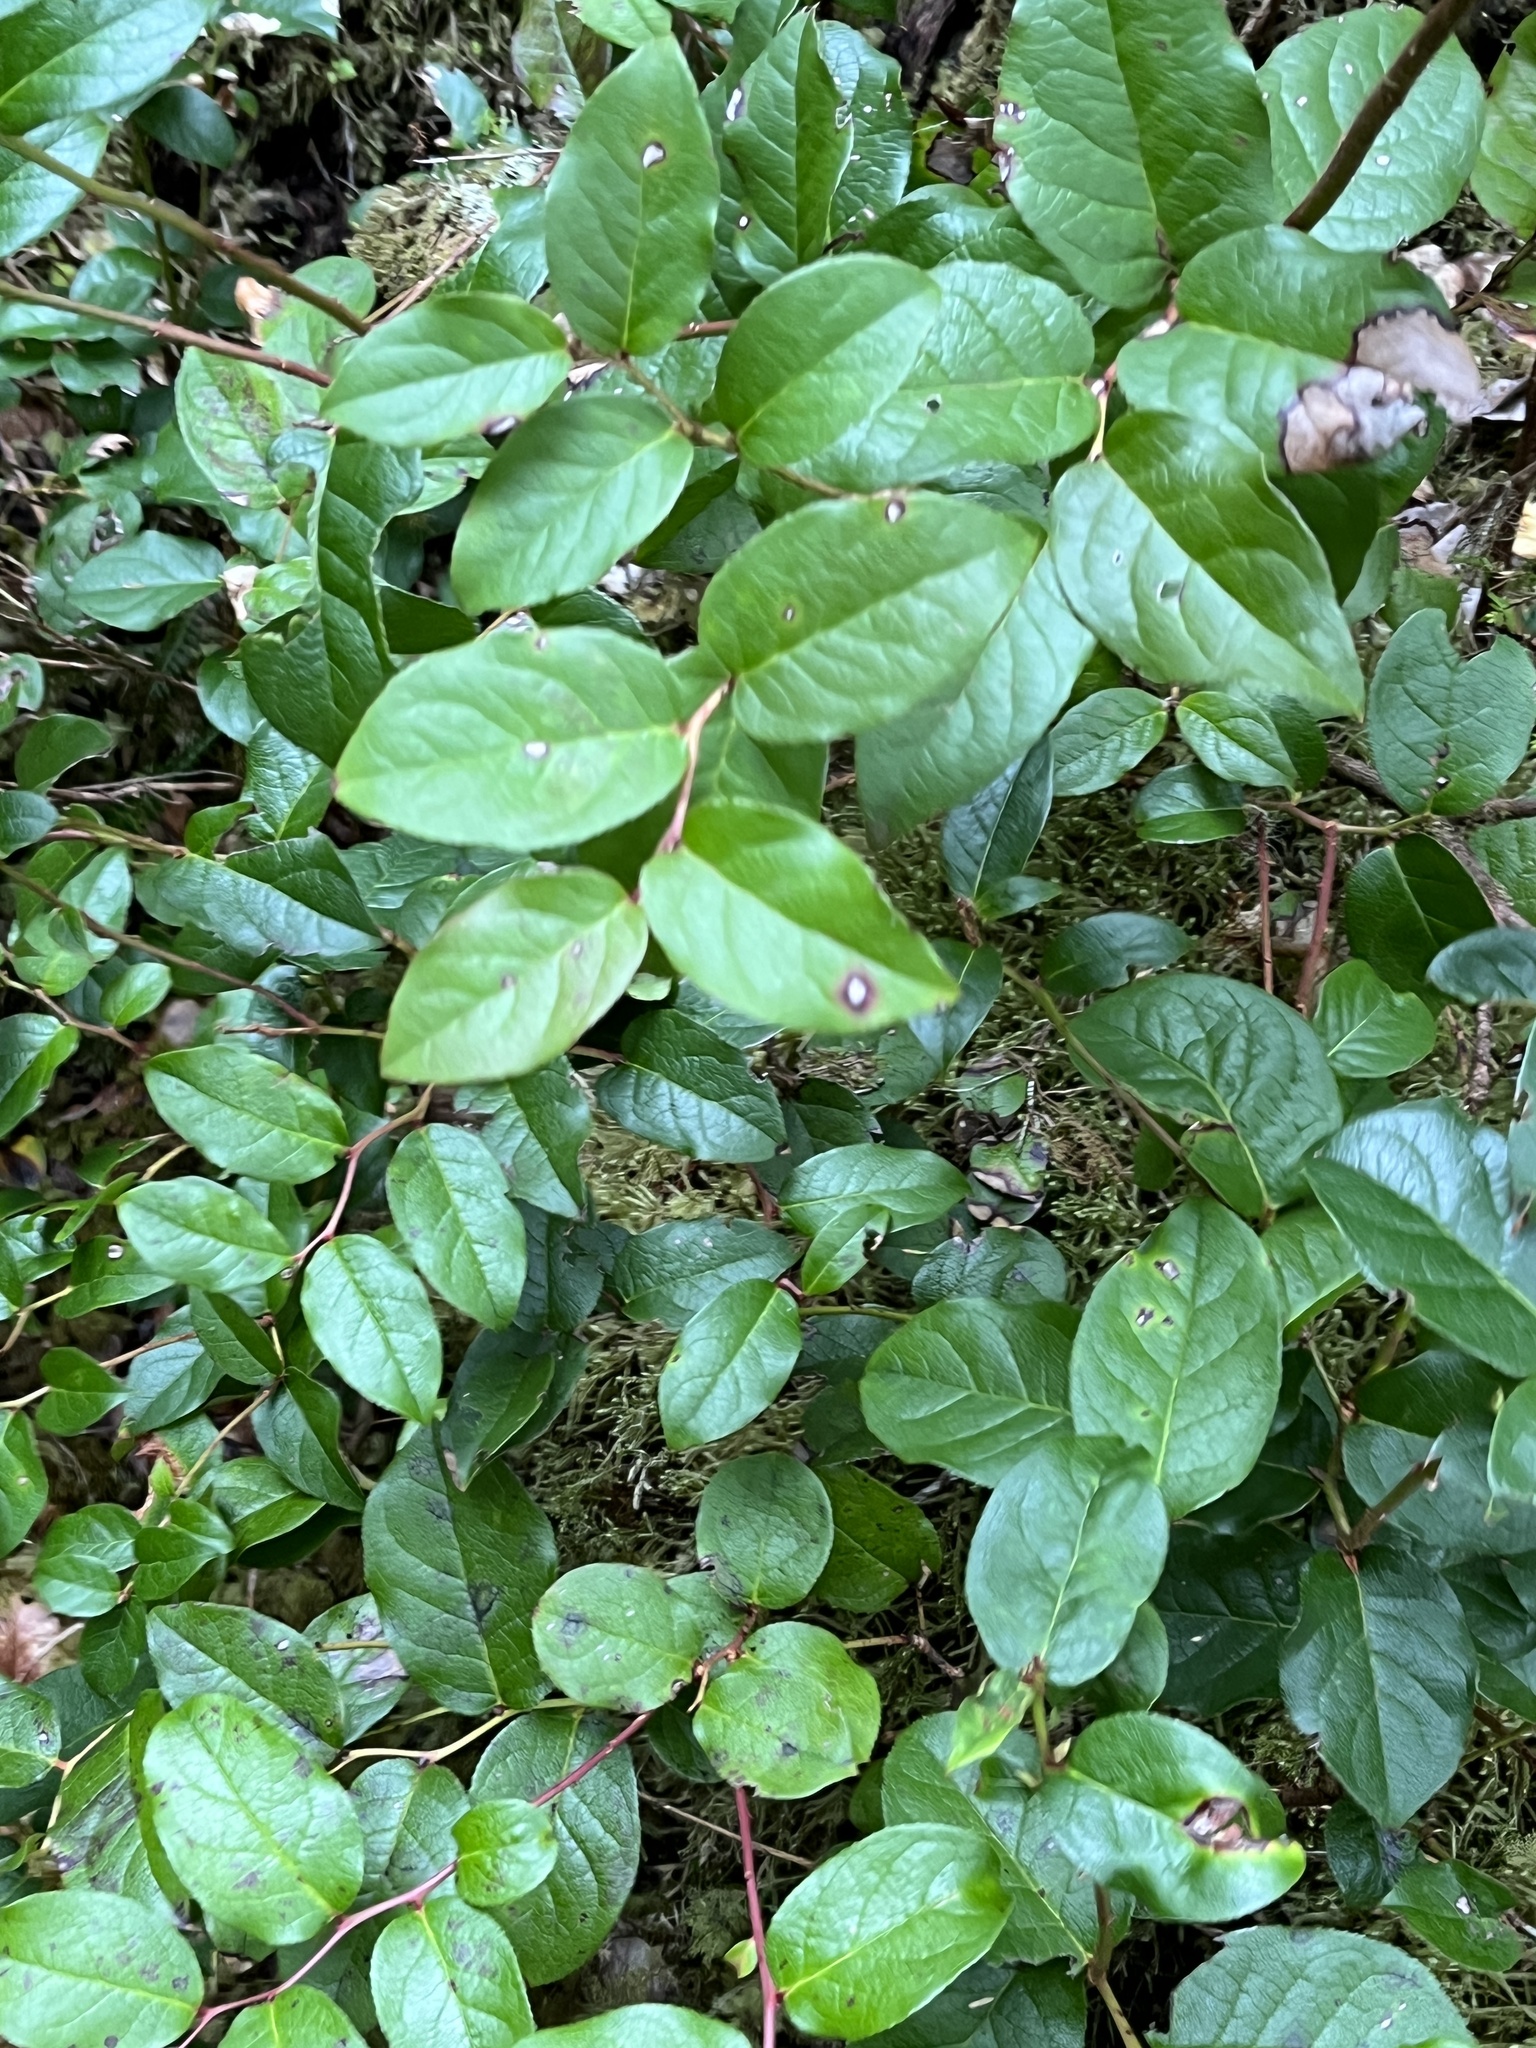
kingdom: Plantae
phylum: Tracheophyta
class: Magnoliopsida
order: Ericales
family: Ericaceae
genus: Gaultheria
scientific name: Gaultheria shallon
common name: Shallon
